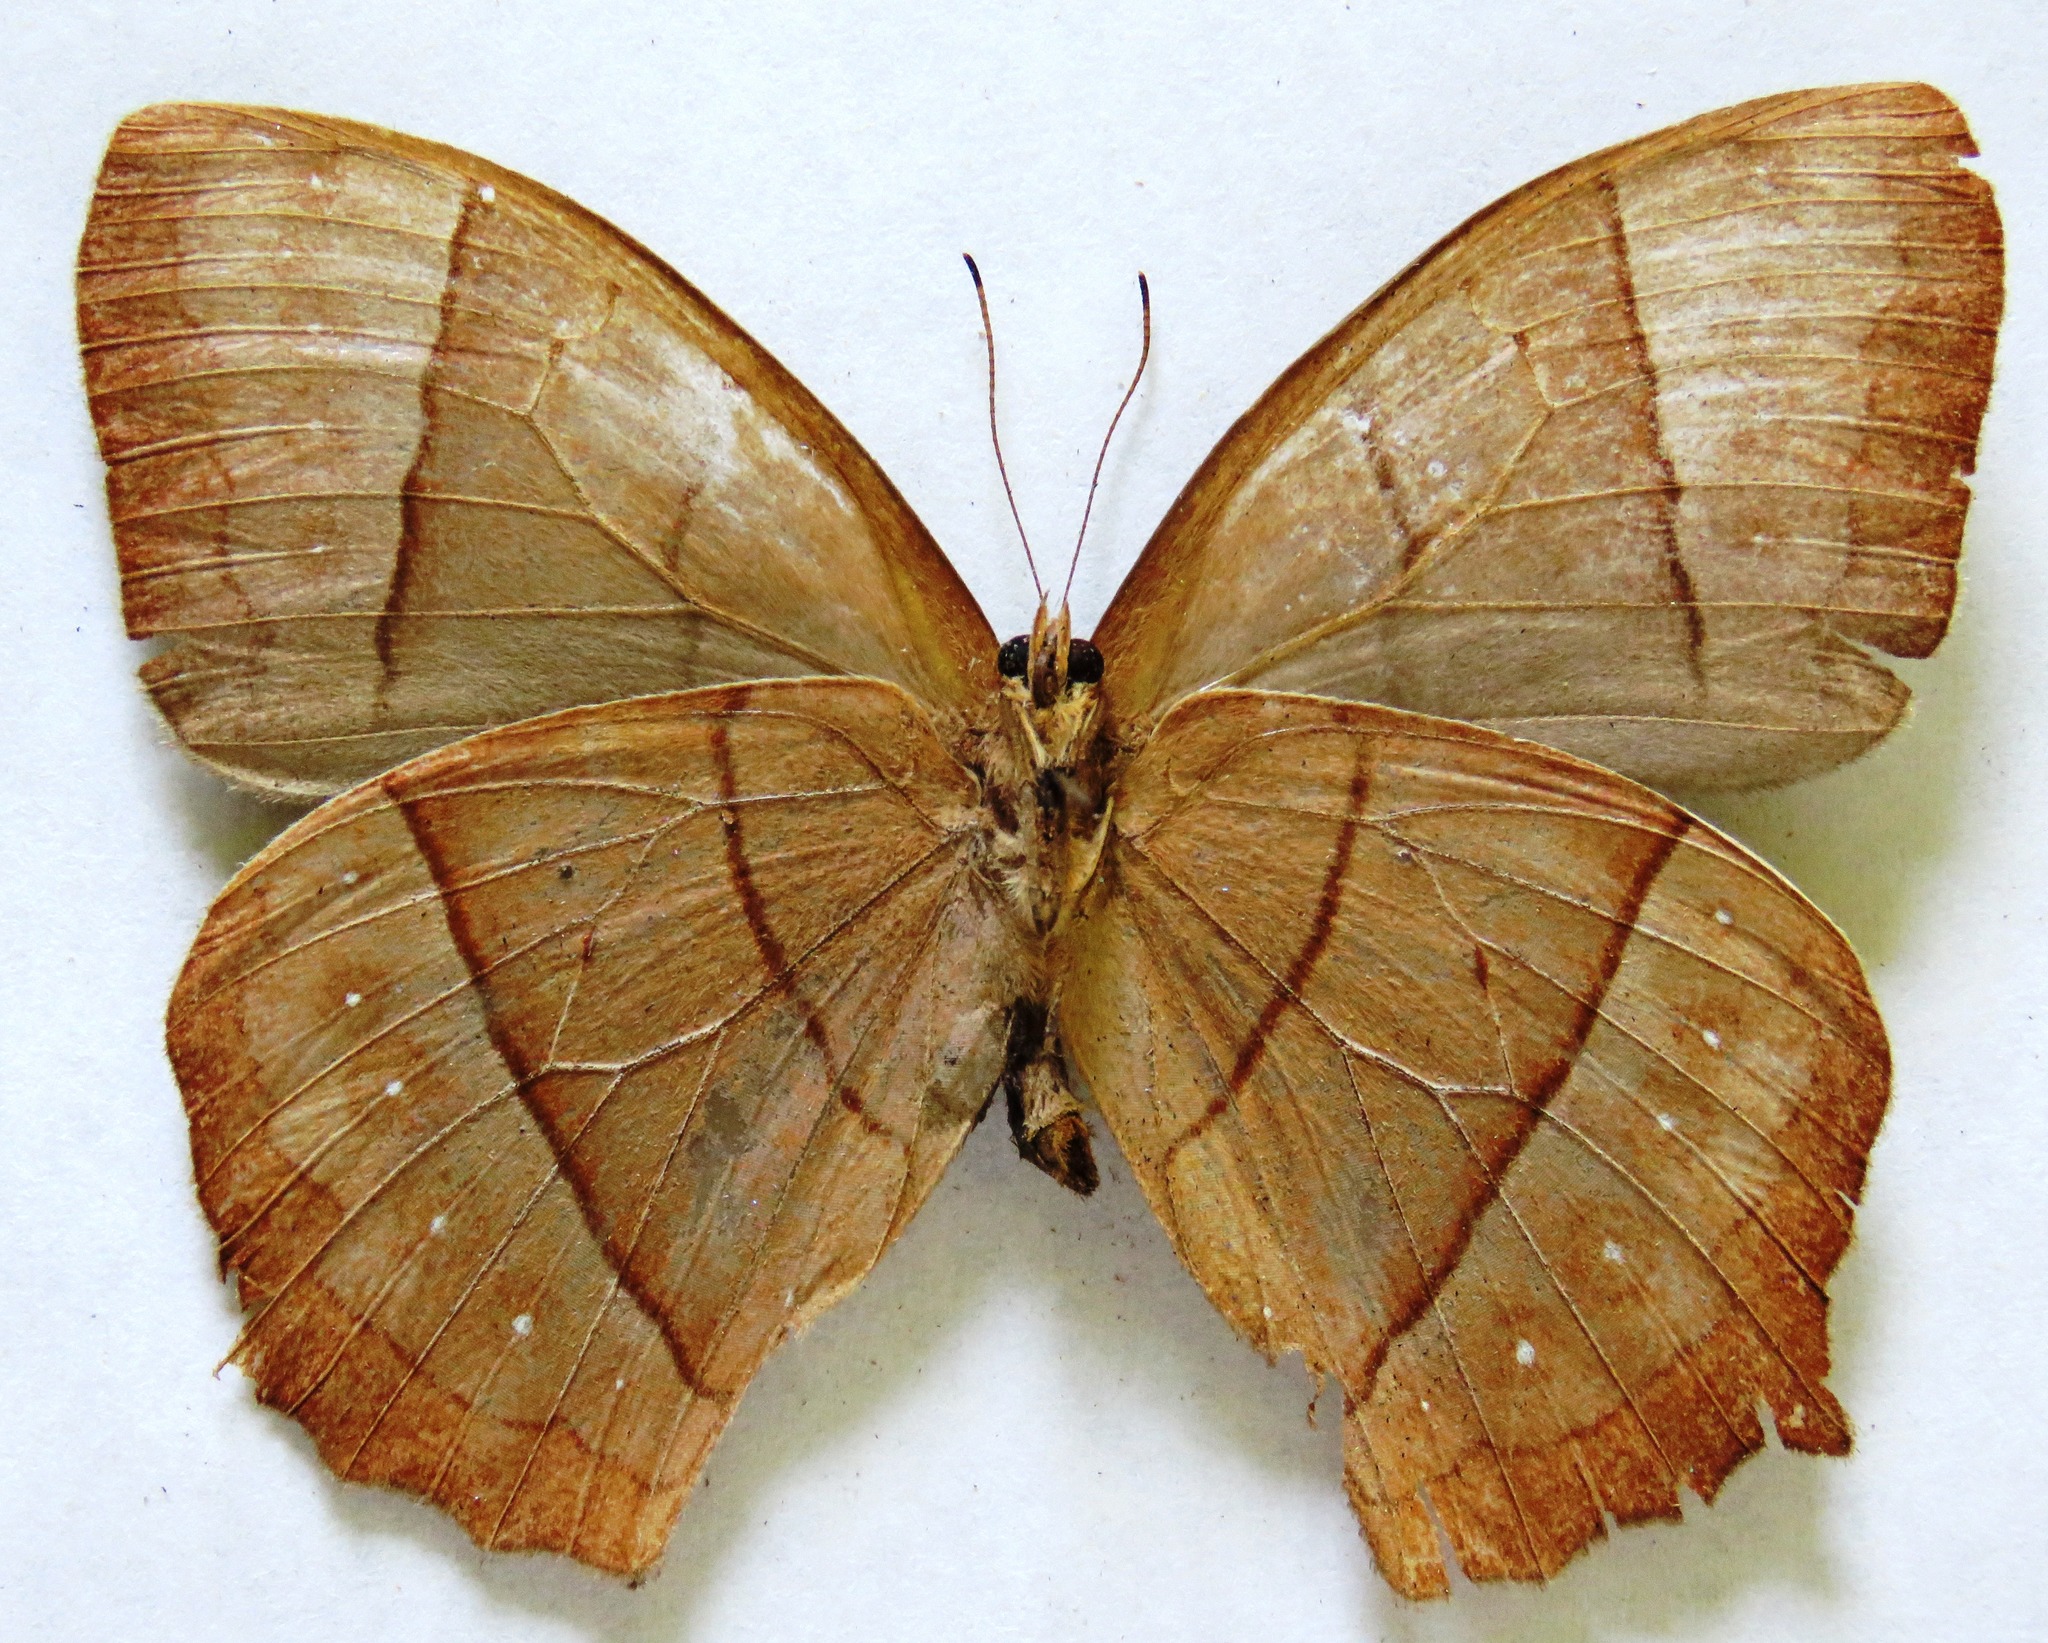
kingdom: Animalia
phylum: Arthropoda
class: Insecta
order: Lepidoptera
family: Nymphalidae
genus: Taygetis
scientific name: Taygetis virgilia
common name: Stub-tailed satyr
